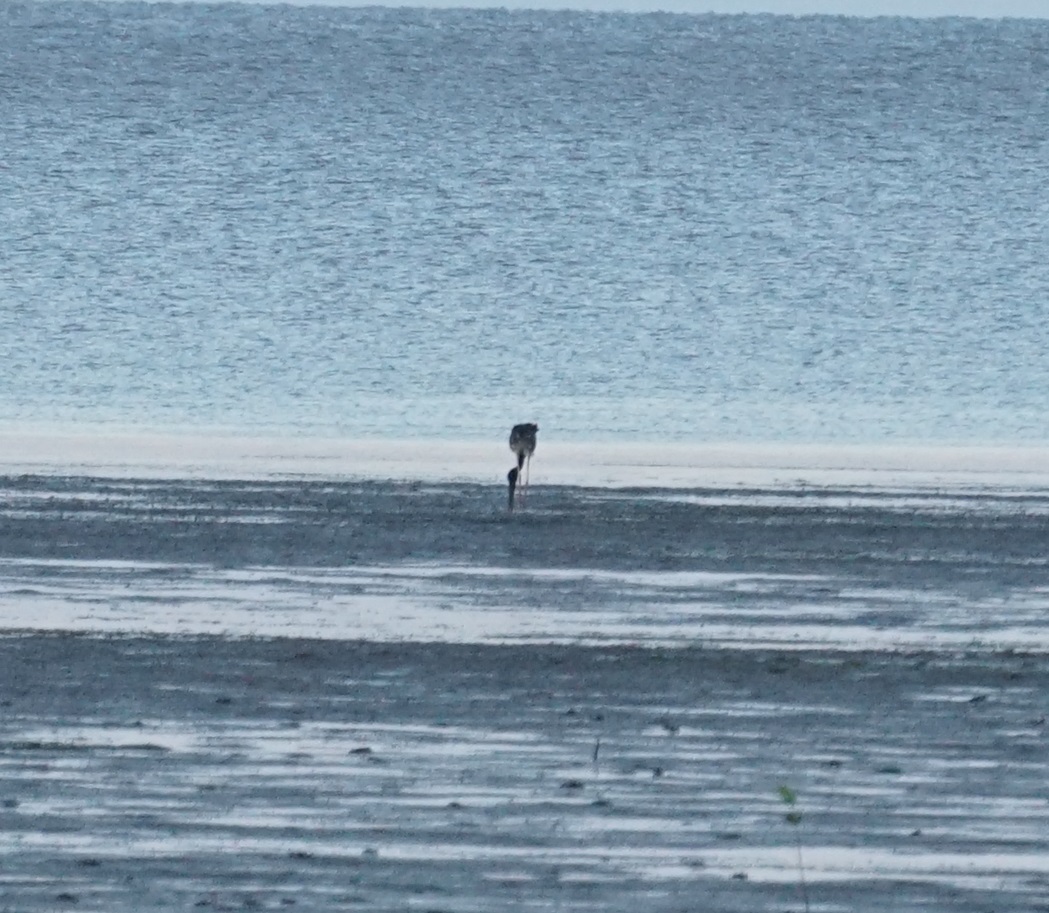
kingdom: Animalia
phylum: Chordata
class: Aves
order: Ciconiiformes
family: Ciconiidae
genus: Ephippiorhynchus
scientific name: Ephippiorhynchus asiaticus
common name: Black-necked stork
